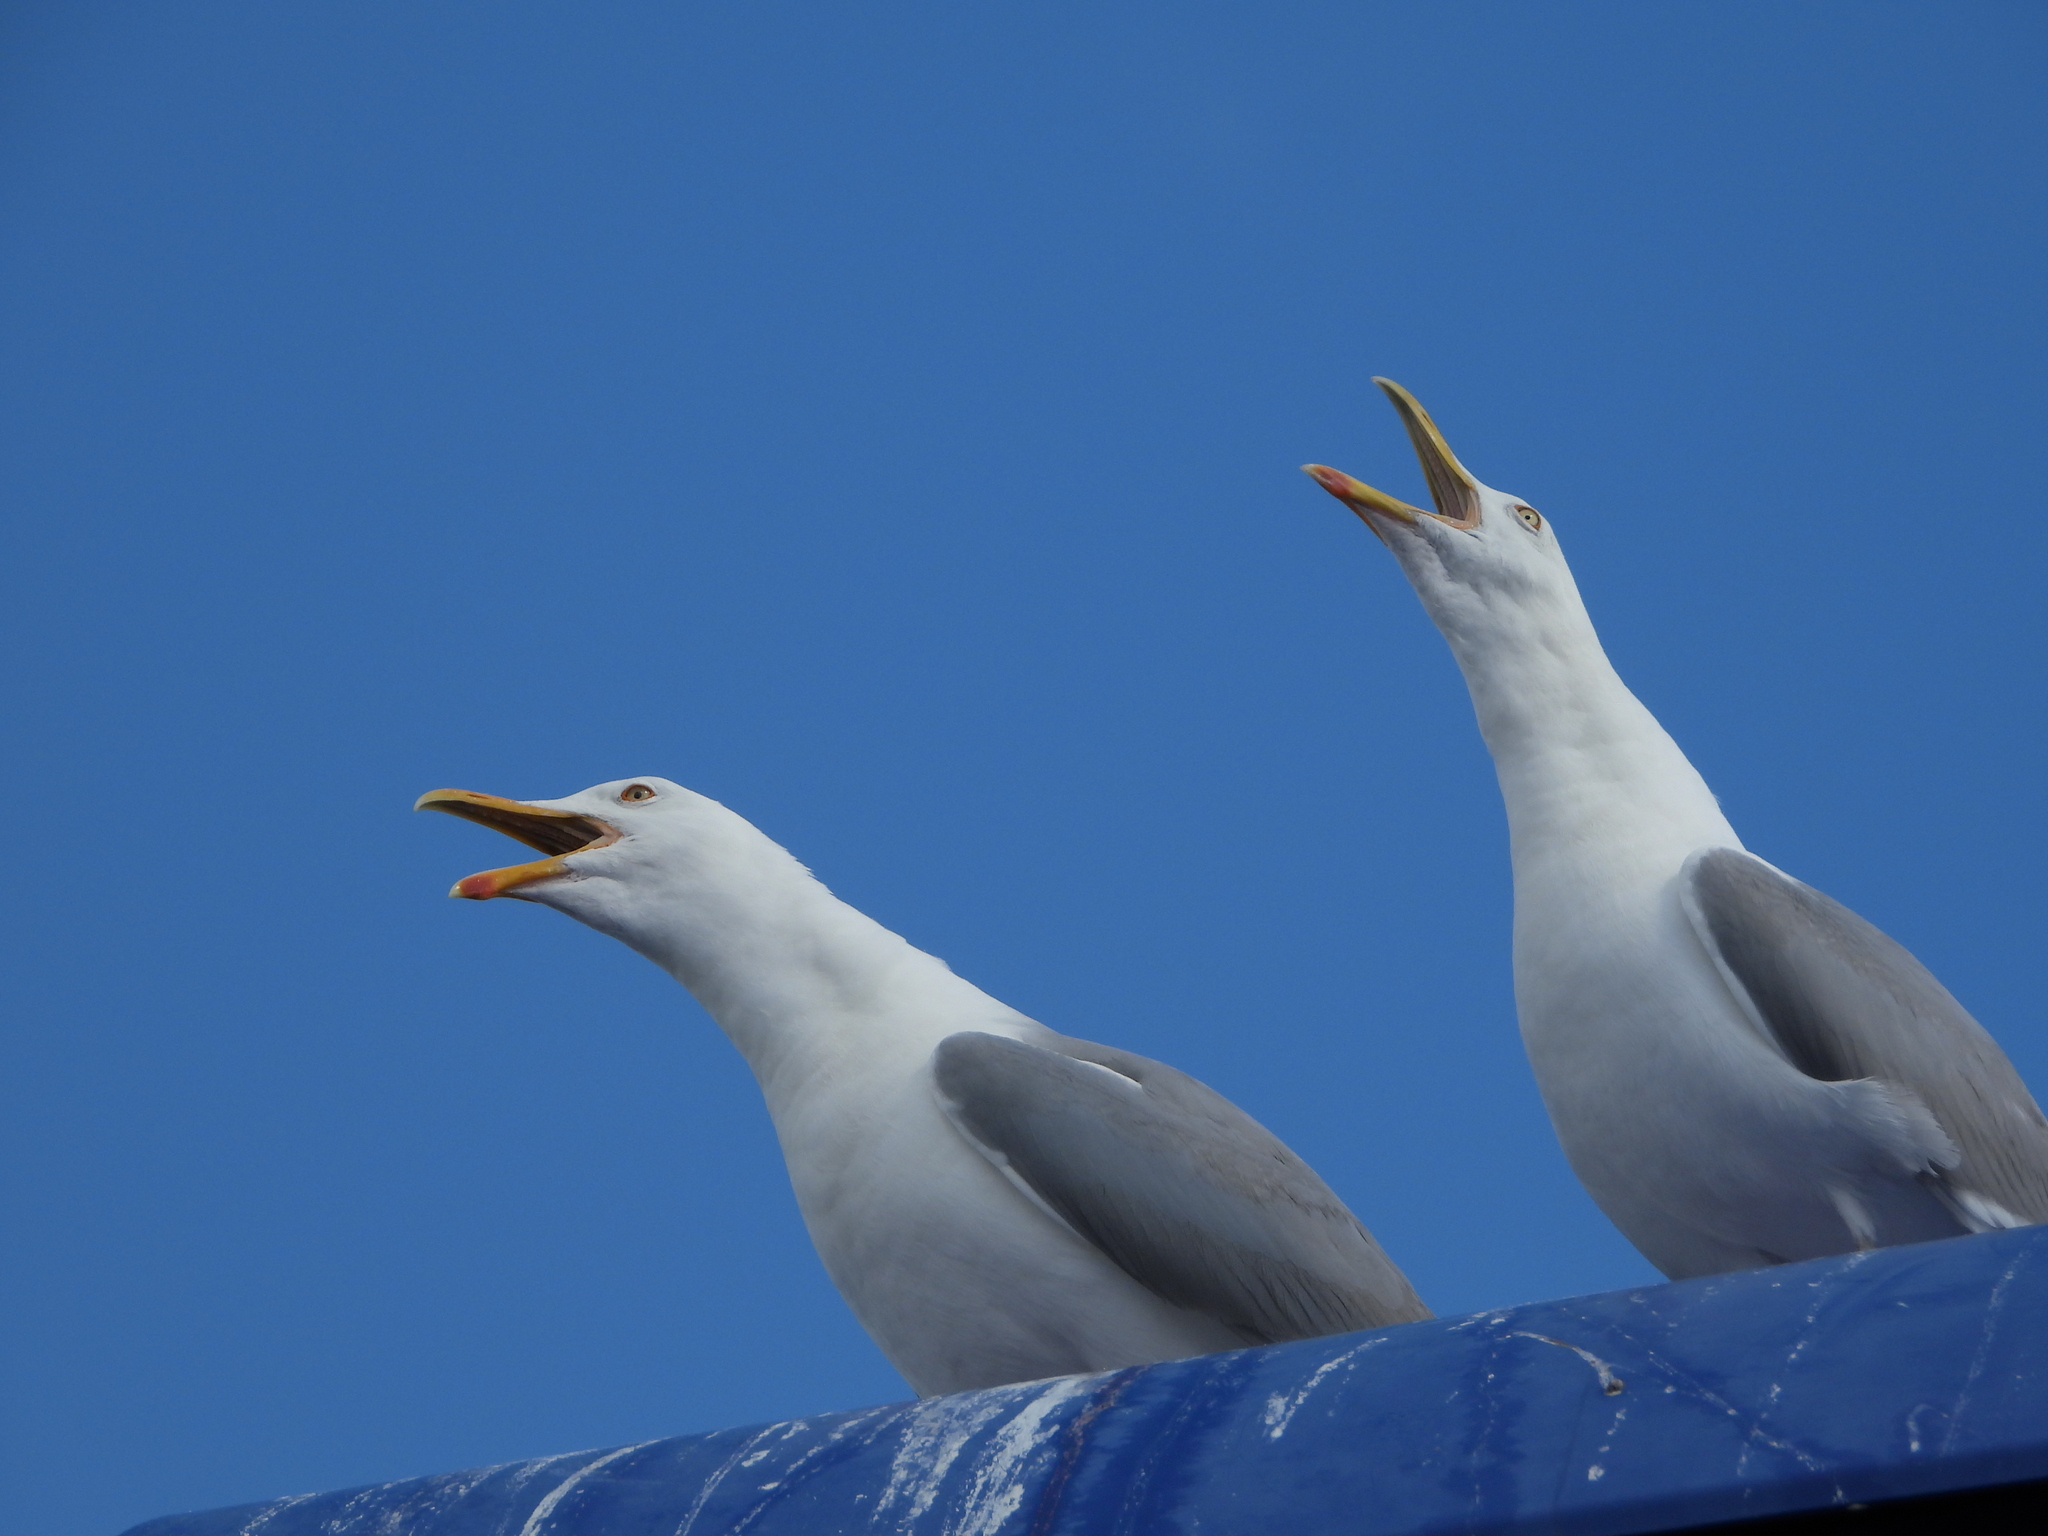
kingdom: Animalia
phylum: Chordata
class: Aves
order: Charadriiformes
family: Laridae
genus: Larus
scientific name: Larus argentatus
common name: Herring gull
